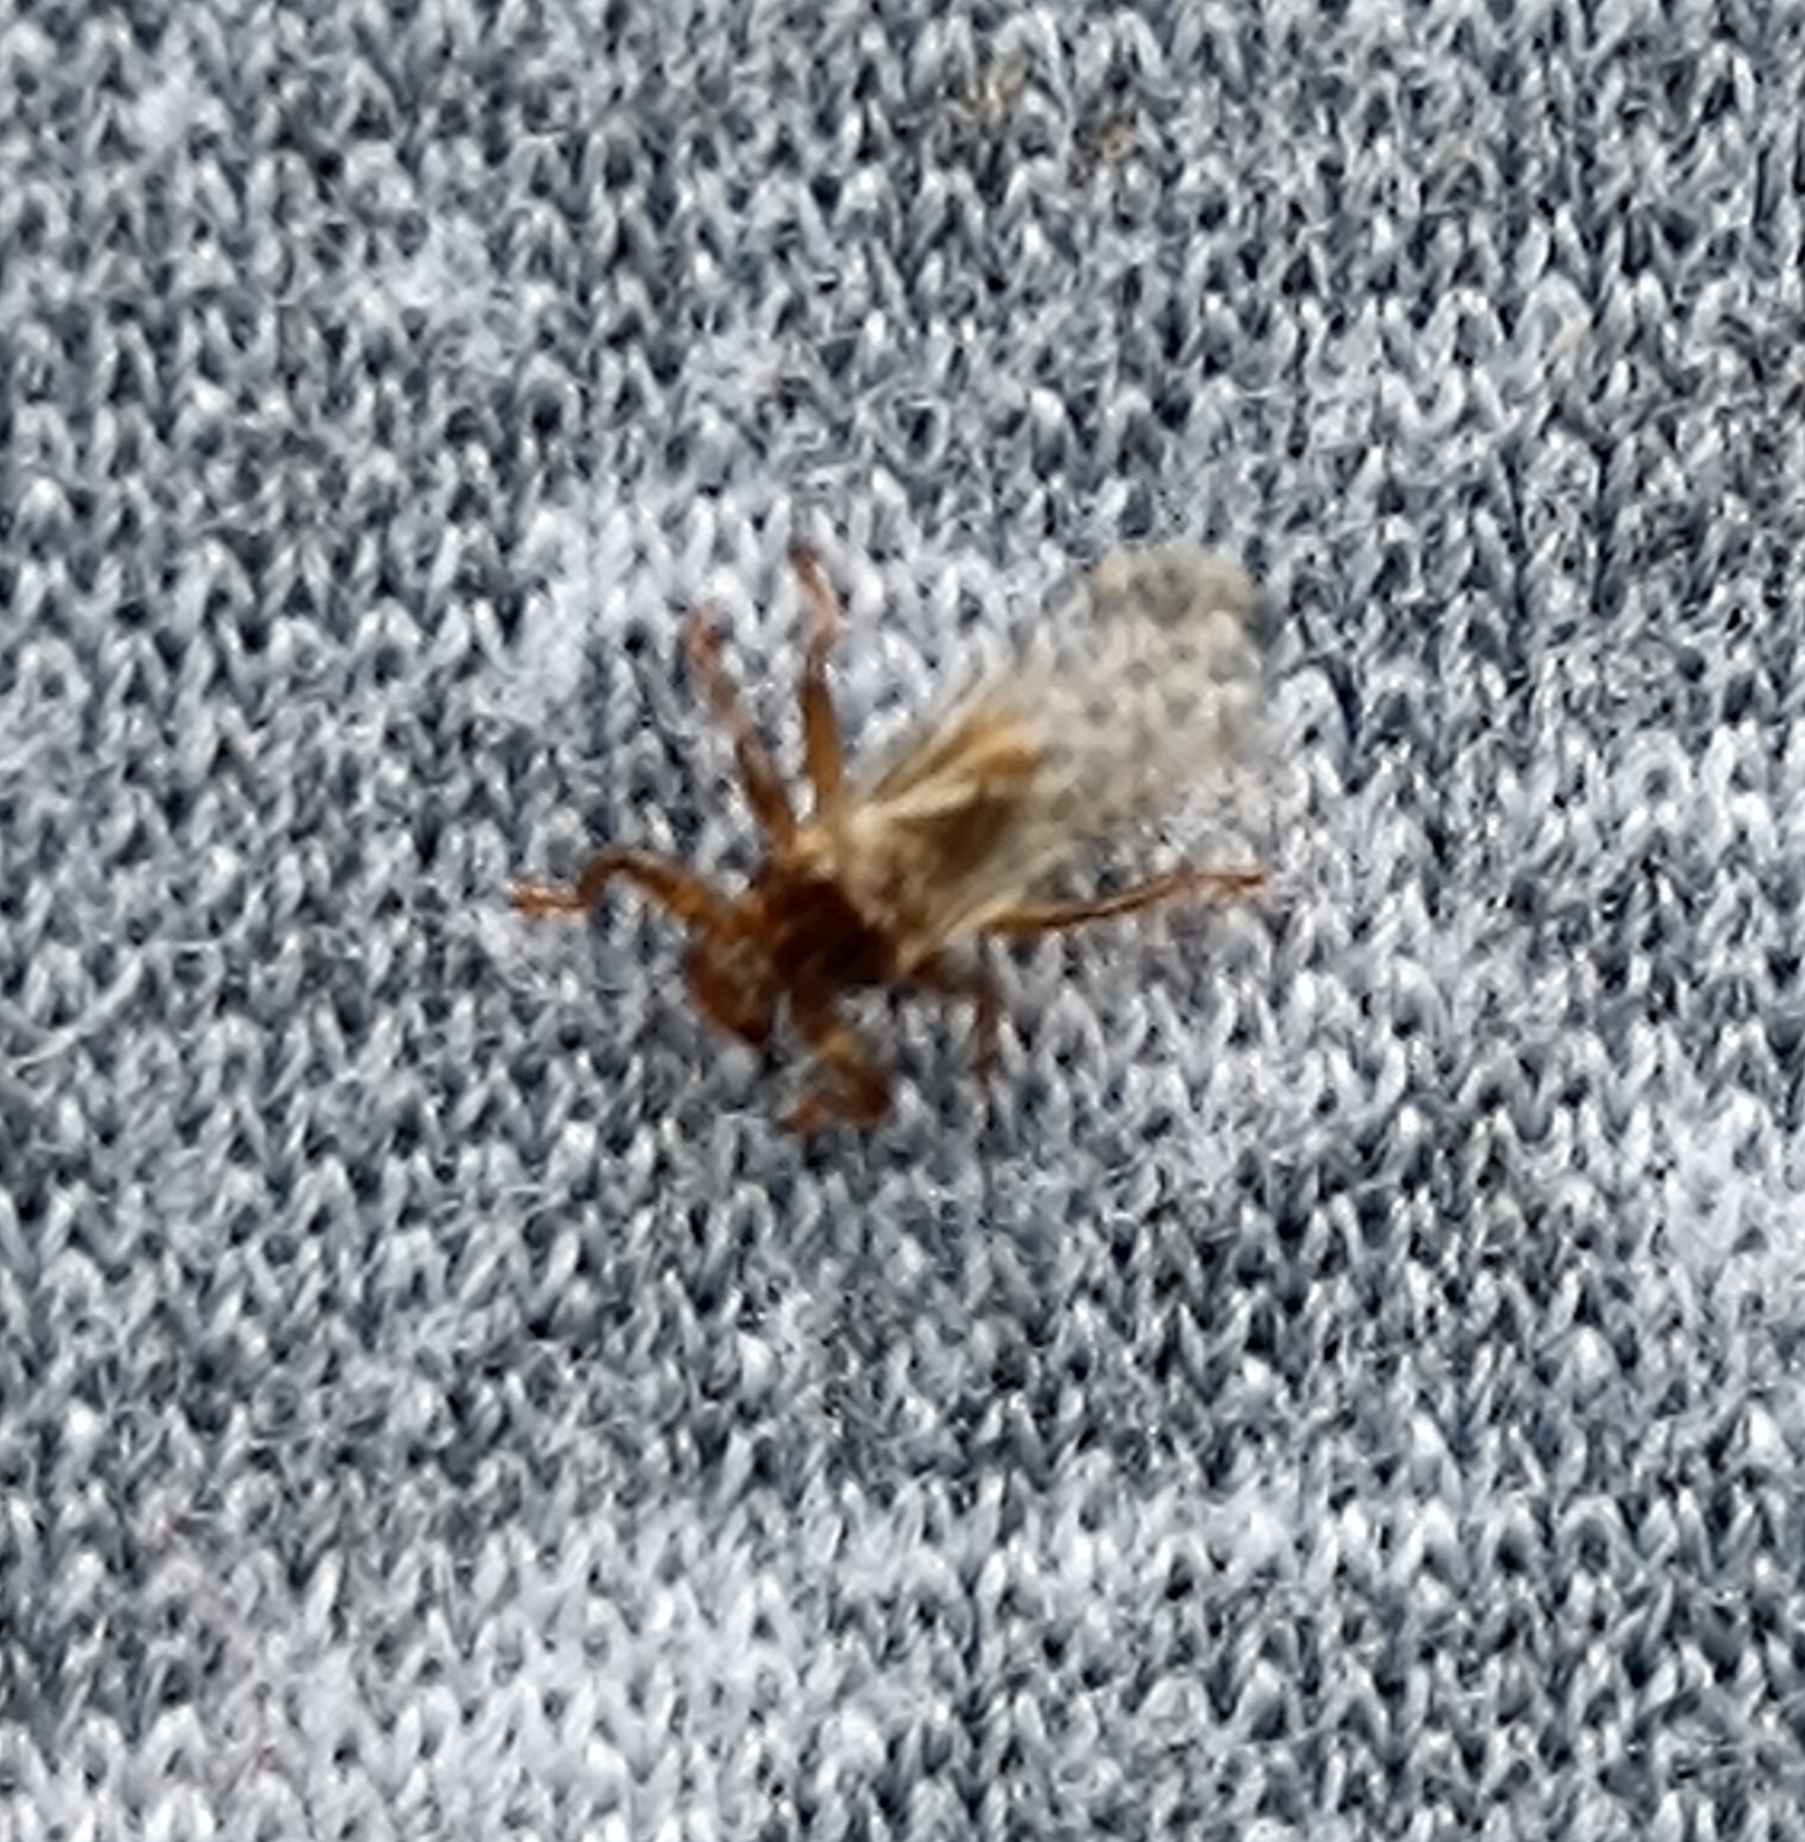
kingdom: Animalia
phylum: Arthropoda
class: Insecta
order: Diptera
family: Hippoboscidae
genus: Lipoptena
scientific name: Lipoptena cervi
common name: Deer ked
